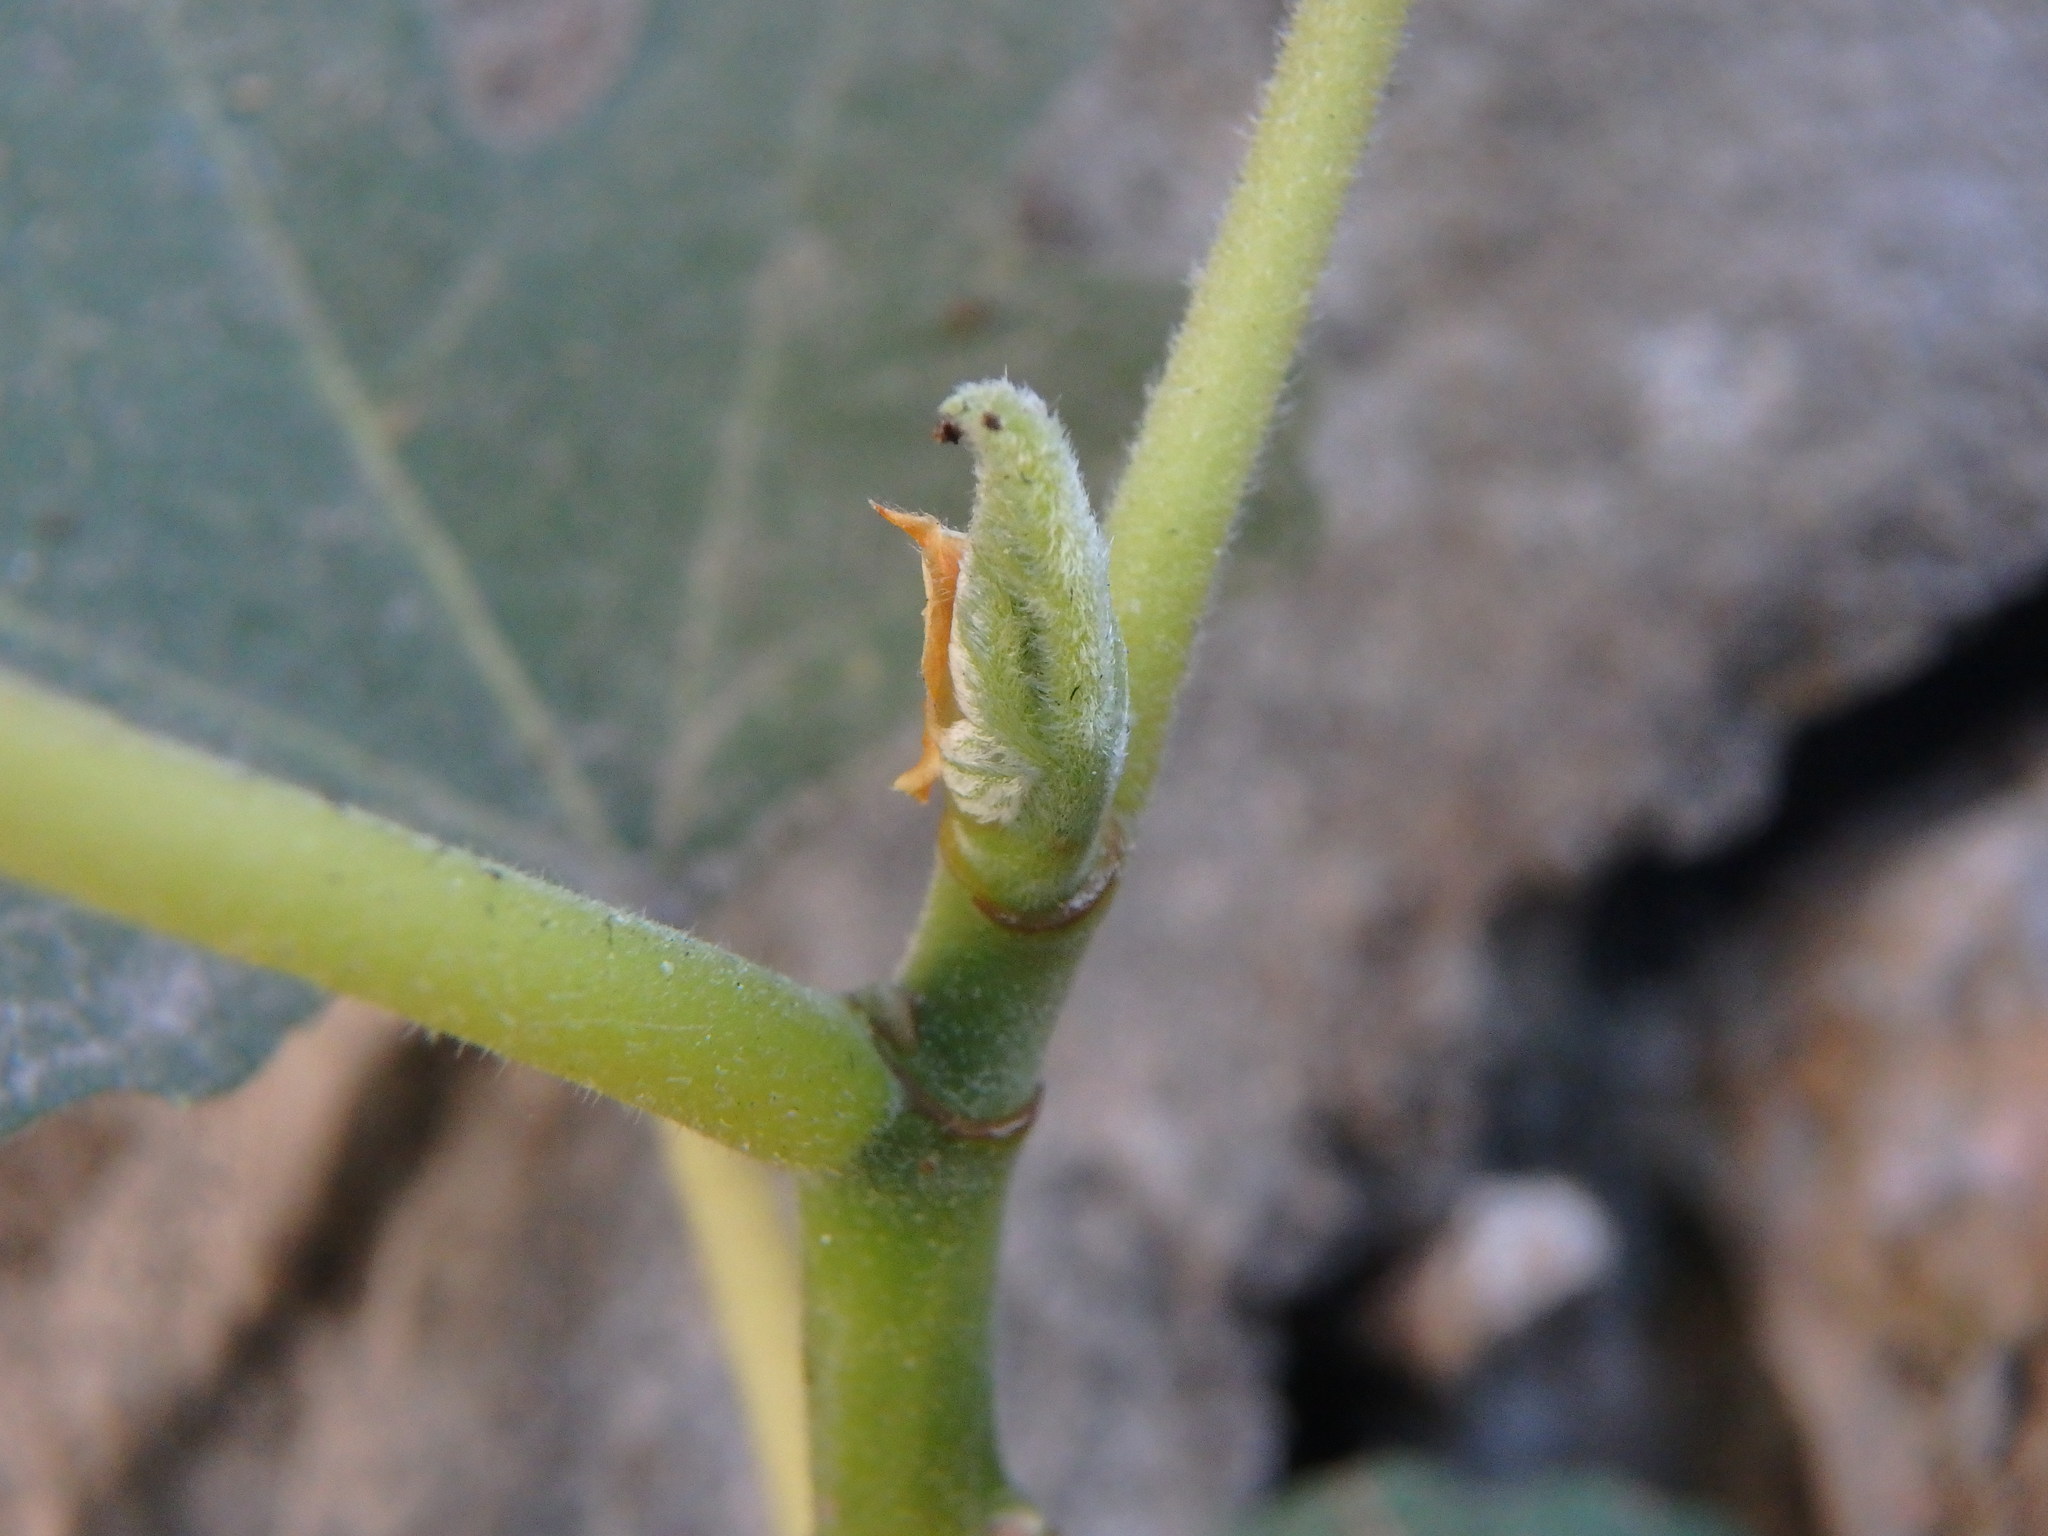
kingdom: Plantae
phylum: Tracheophyta
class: Magnoliopsida
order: Rosales
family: Moraceae
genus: Ficus
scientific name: Ficus carica
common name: Fig
